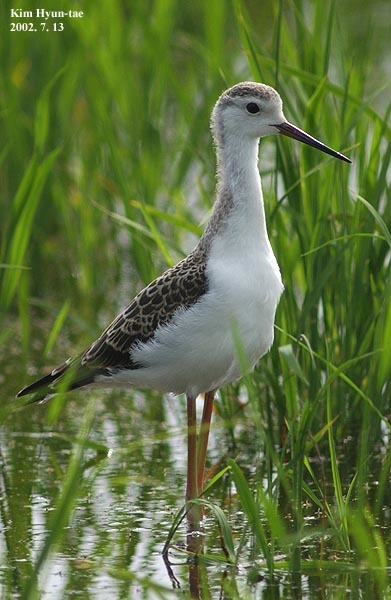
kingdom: Animalia
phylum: Chordata
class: Aves
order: Charadriiformes
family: Recurvirostridae
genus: Himantopus
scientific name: Himantopus himantopus
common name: Black-winged stilt
